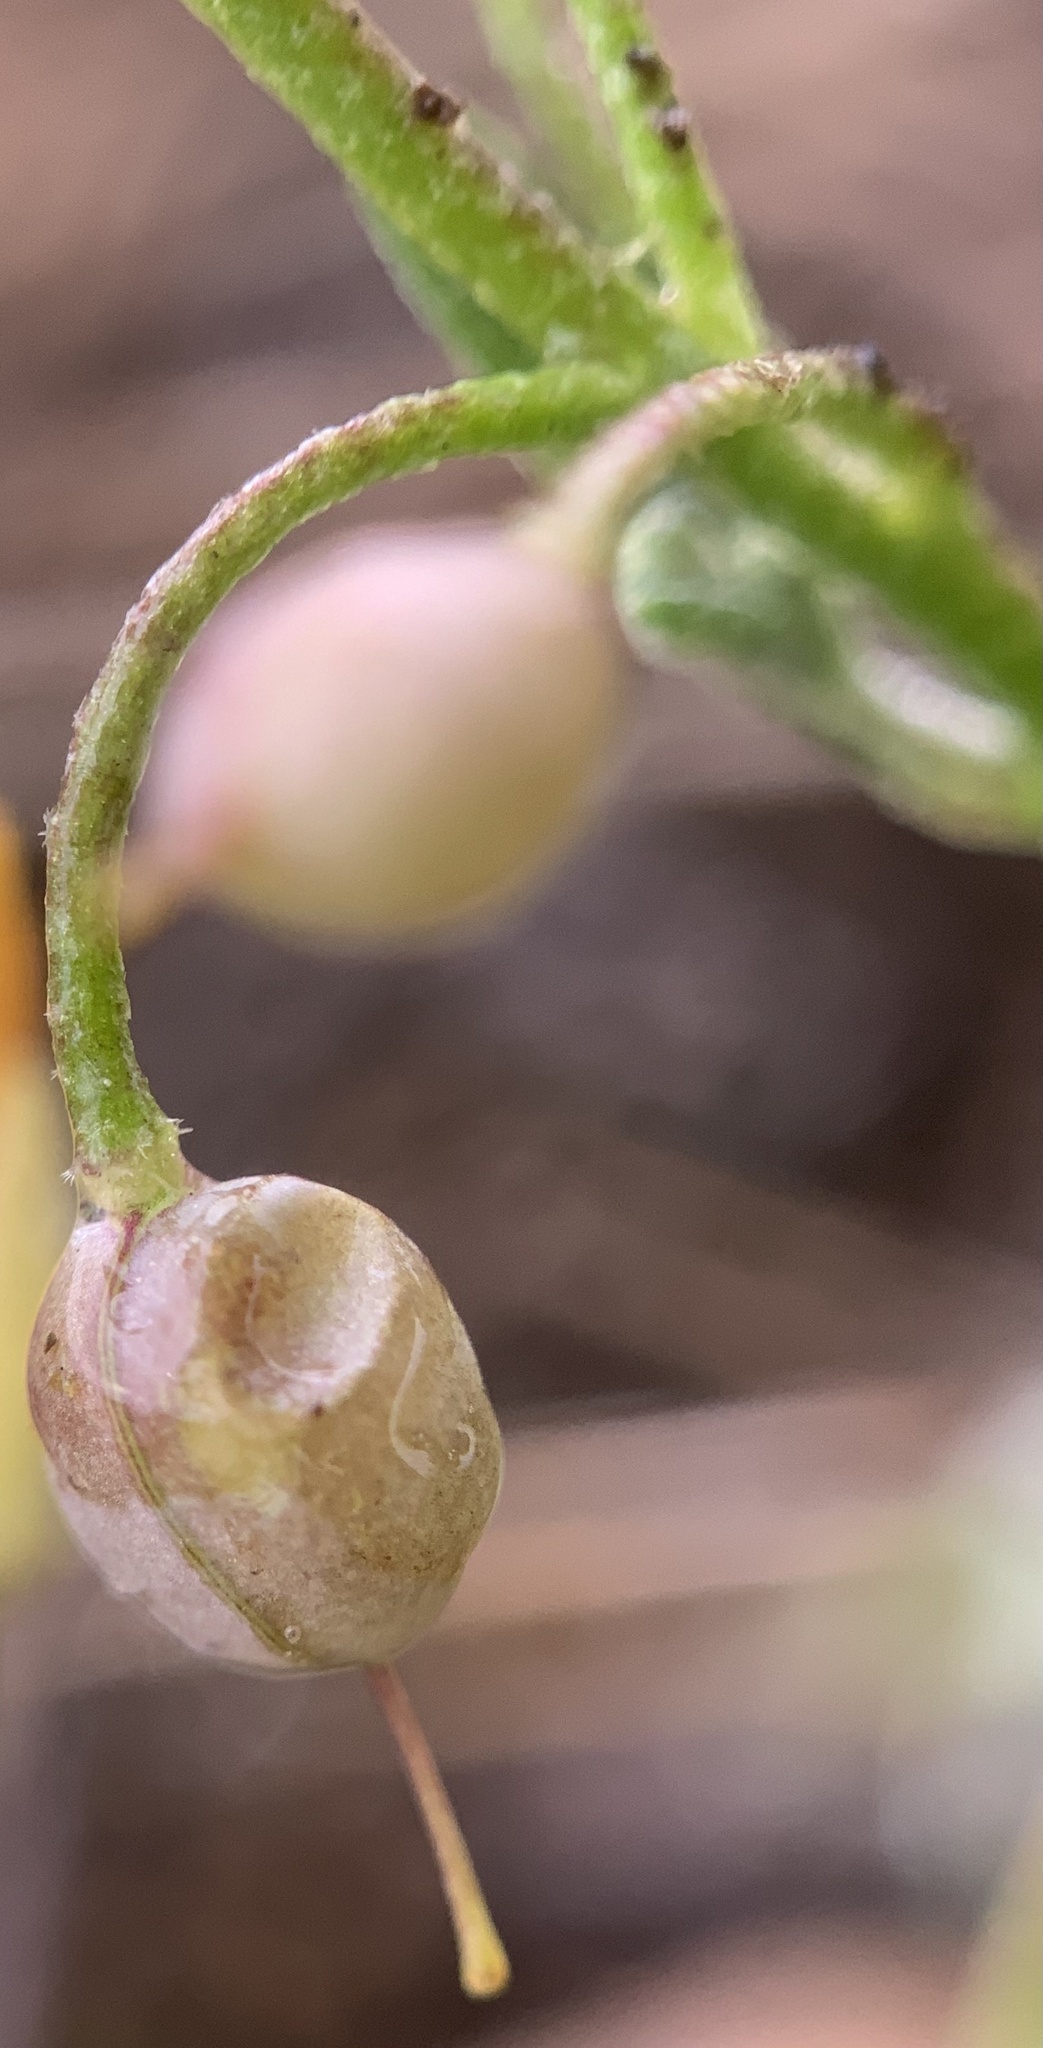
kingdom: Plantae
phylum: Tracheophyta
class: Magnoliopsida
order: Brassicales
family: Brassicaceae
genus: Physaria
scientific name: Physaria recurvata
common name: Gaslight bladderpod
